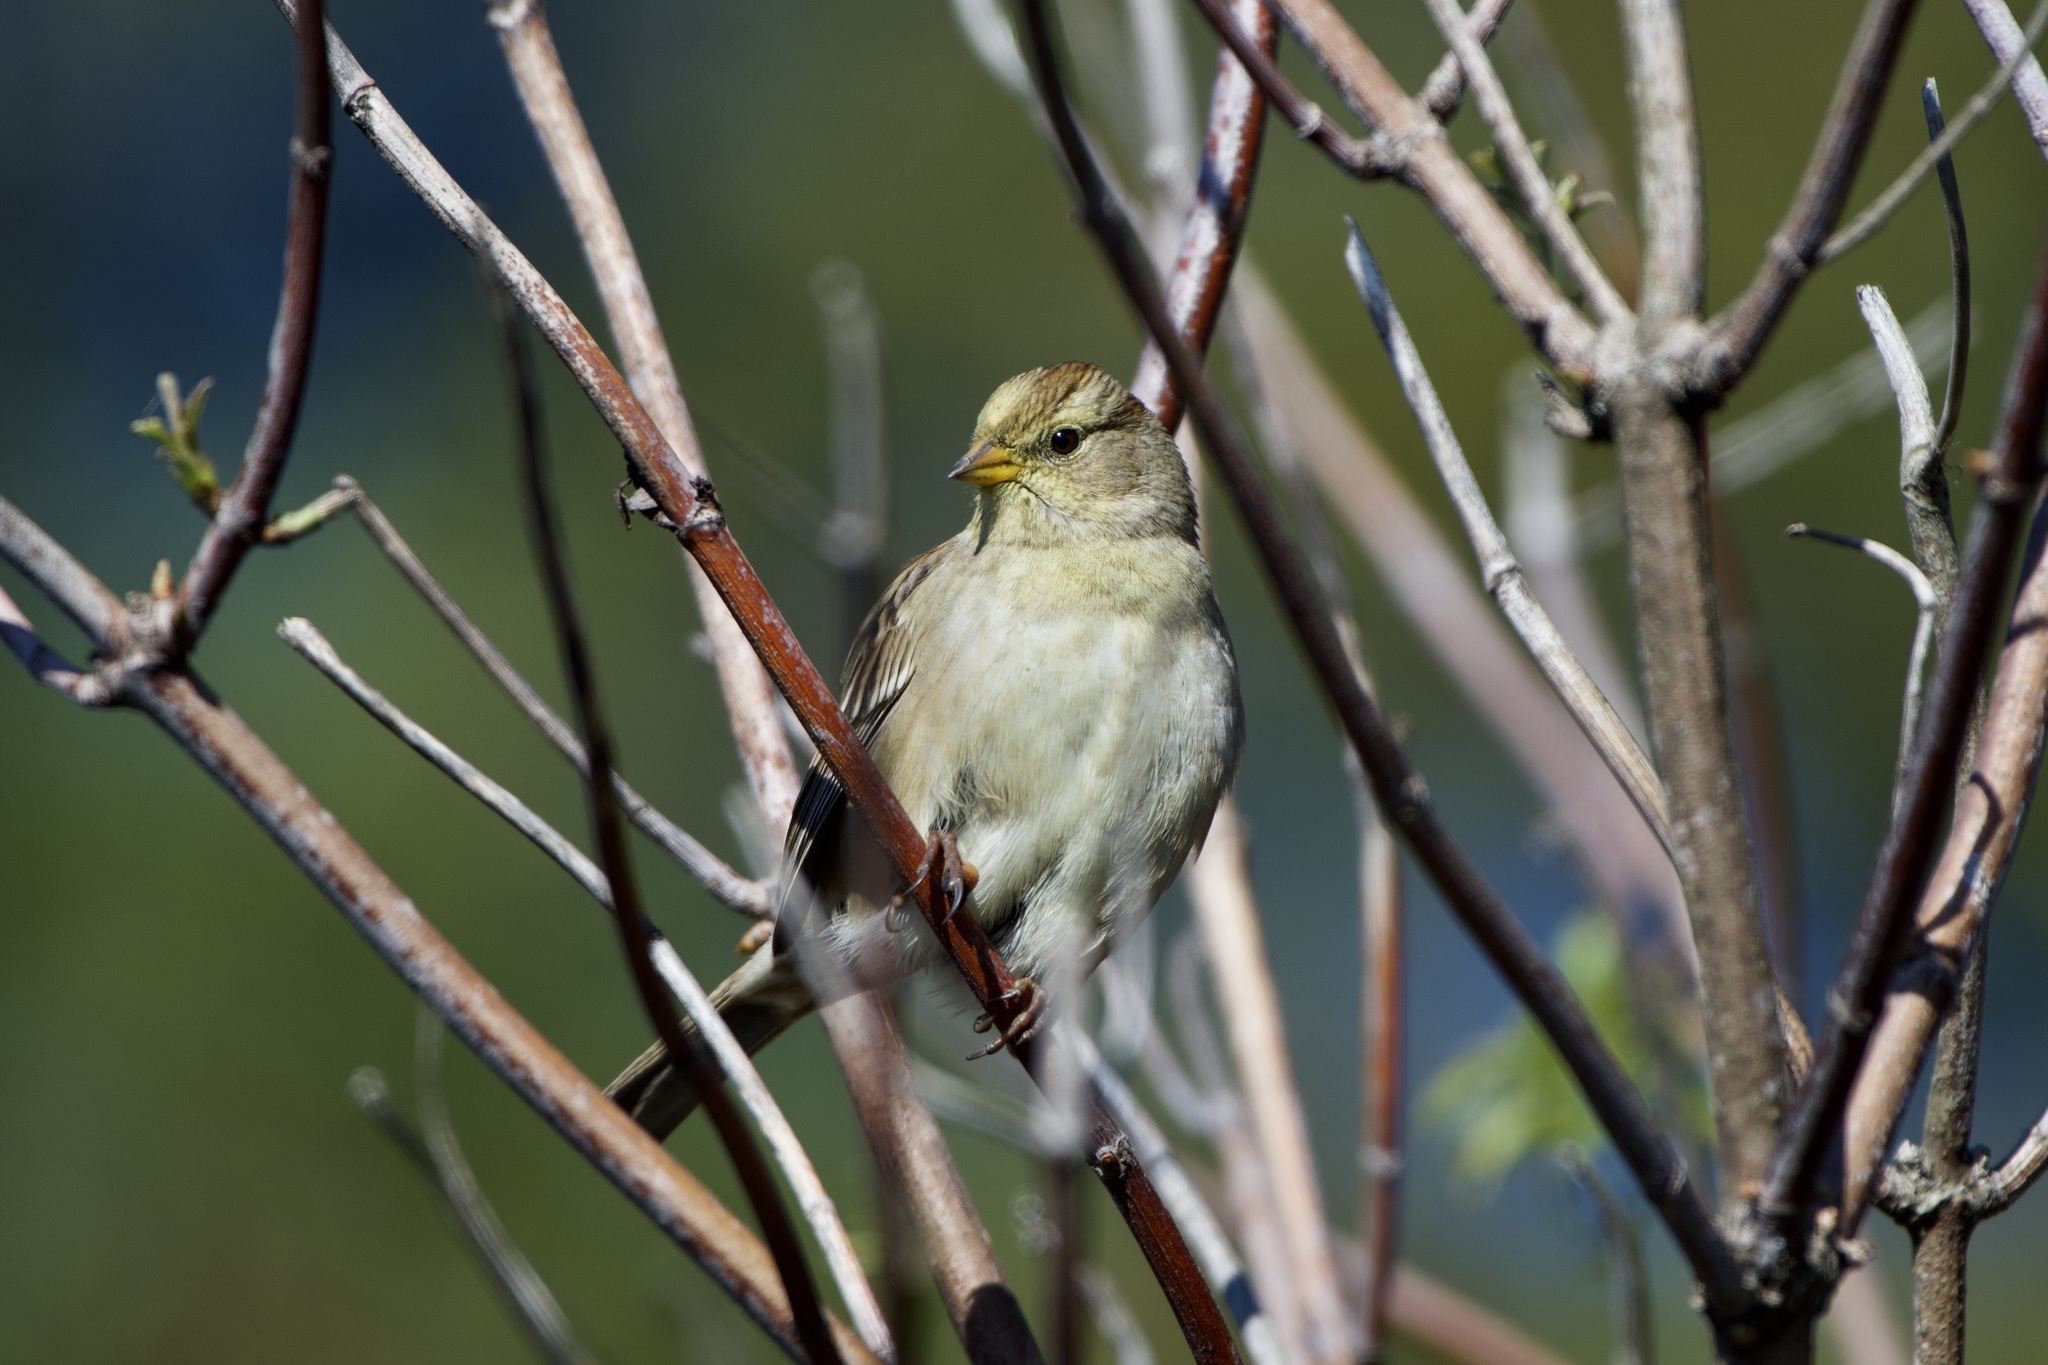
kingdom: Animalia
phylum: Chordata
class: Aves
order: Passeriformes
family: Passerellidae
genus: Zonotrichia
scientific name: Zonotrichia leucophrys
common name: White-crowned sparrow
